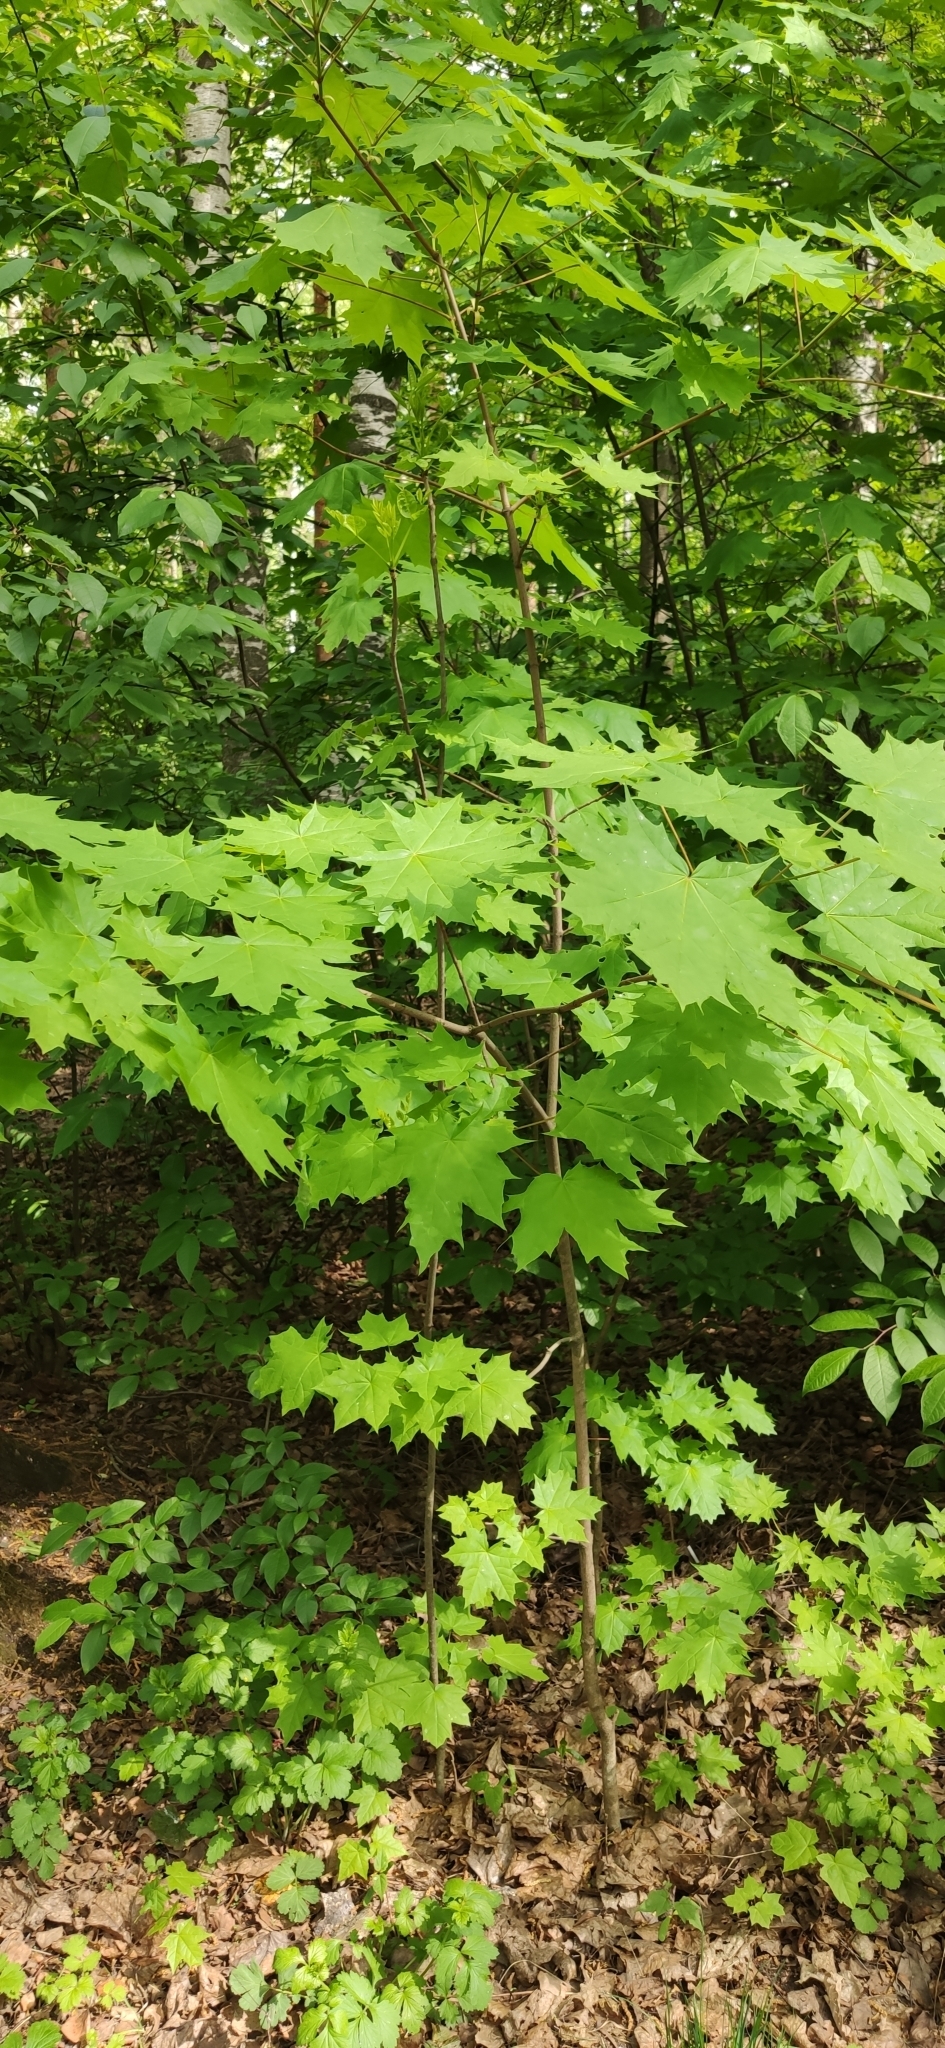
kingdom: Plantae
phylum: Tracheophyta
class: Magnoliopsida
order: Sapindales
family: Sapindaceae
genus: Acer
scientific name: Acer platanoides
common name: Norway maple
